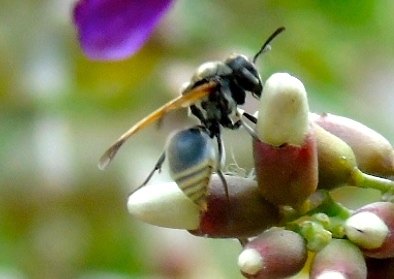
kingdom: Animalia
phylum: Arthropoda
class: Insecta
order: Hymenoptera
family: Vespidae
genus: Brachygastra
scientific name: Brachygastra mellifica
